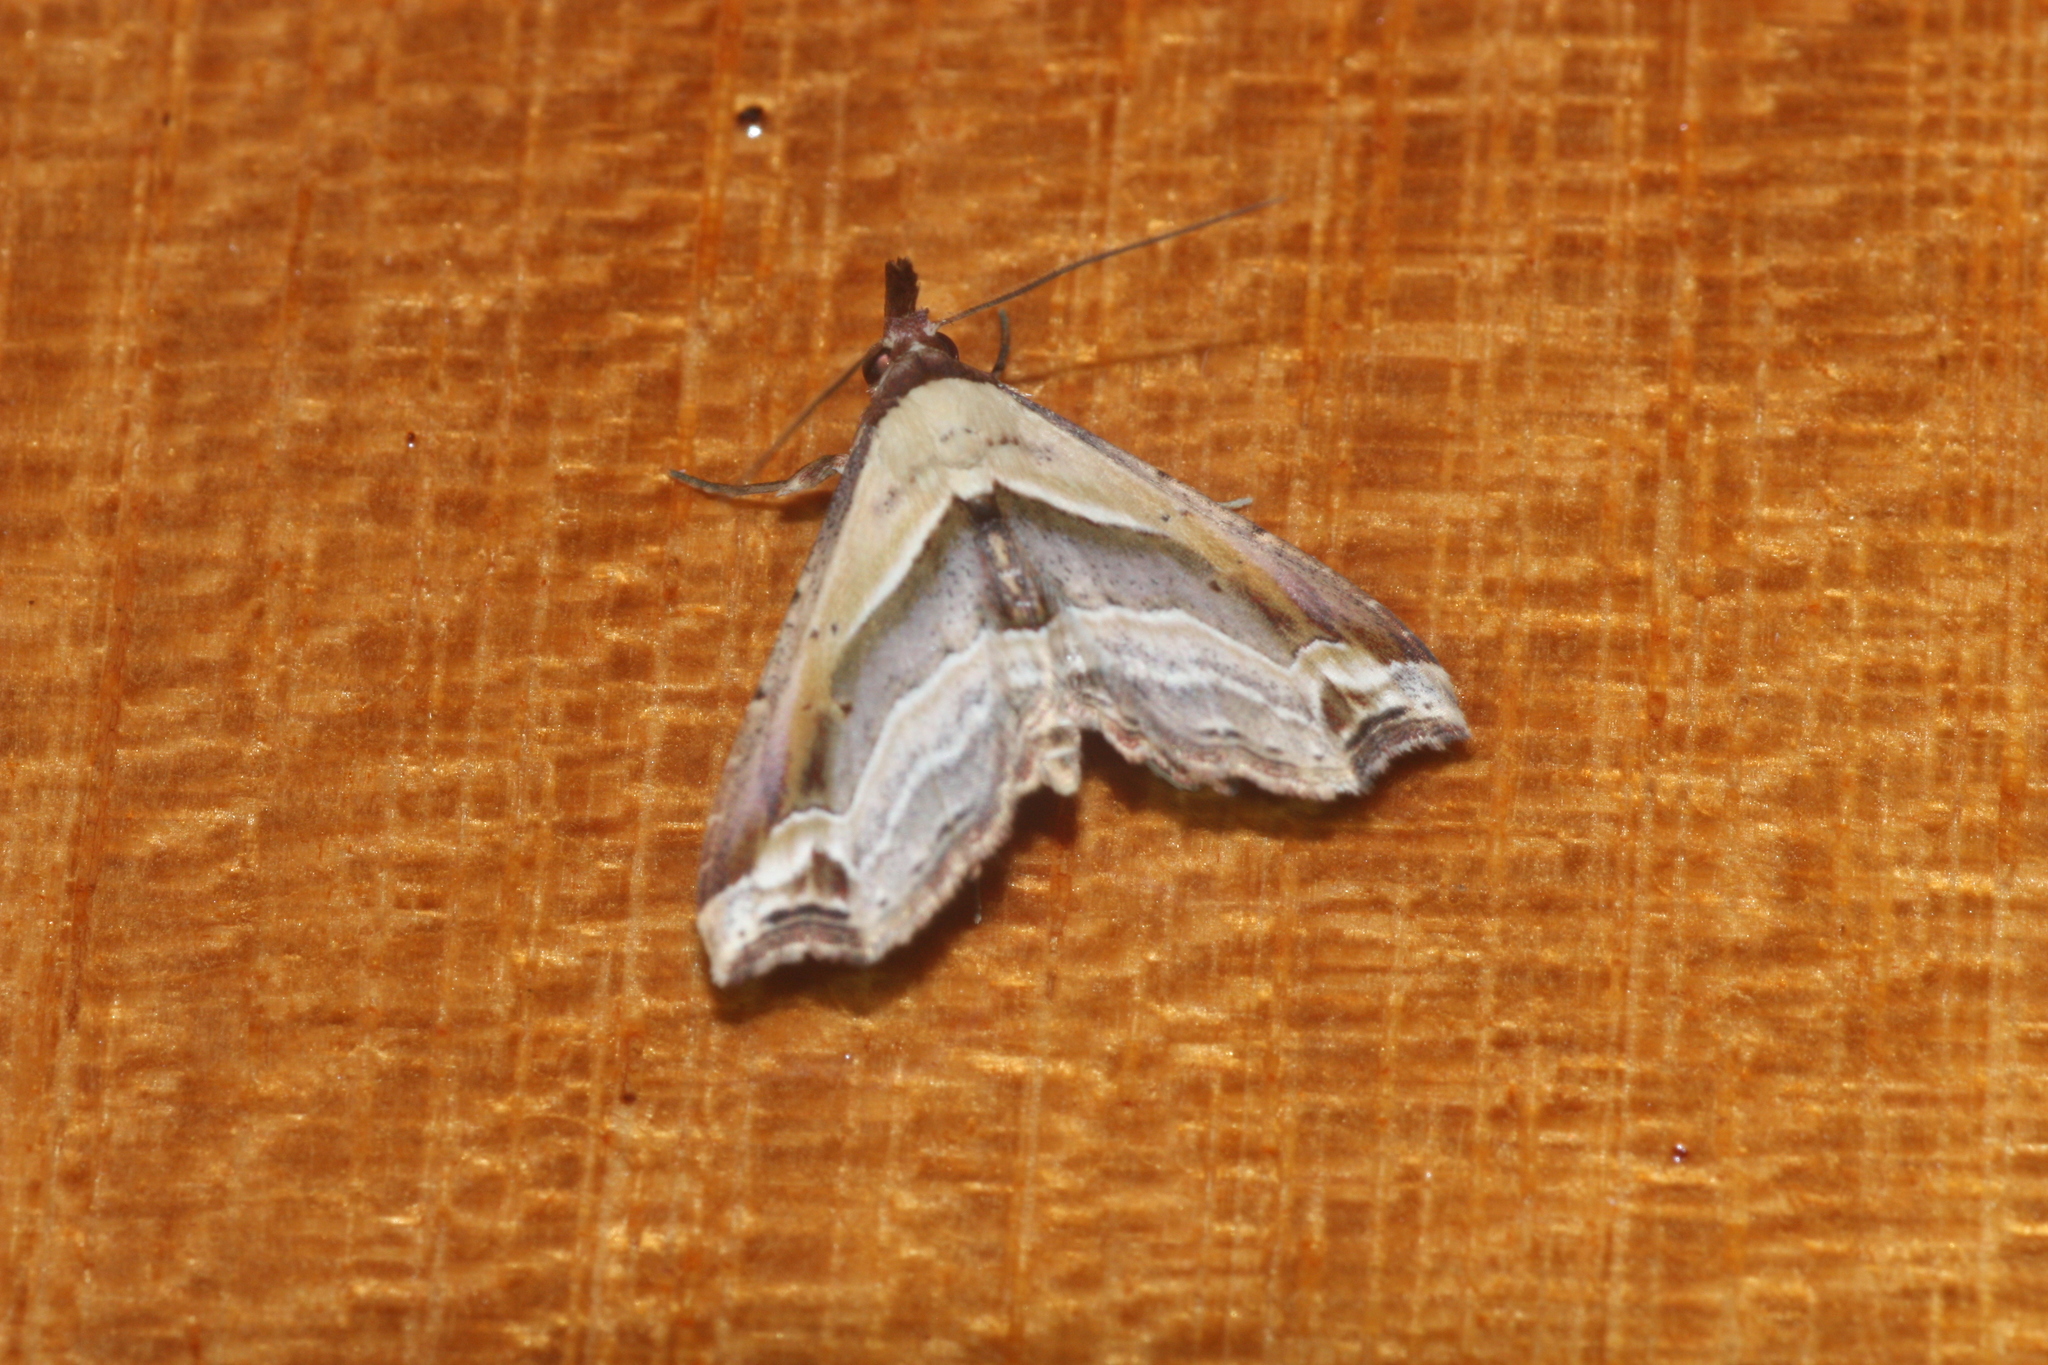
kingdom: Animalia
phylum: Arthropoda
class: Insecta
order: Lepidoptera
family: Erebidae
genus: Eugoniella
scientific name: Eugoniella sapota
